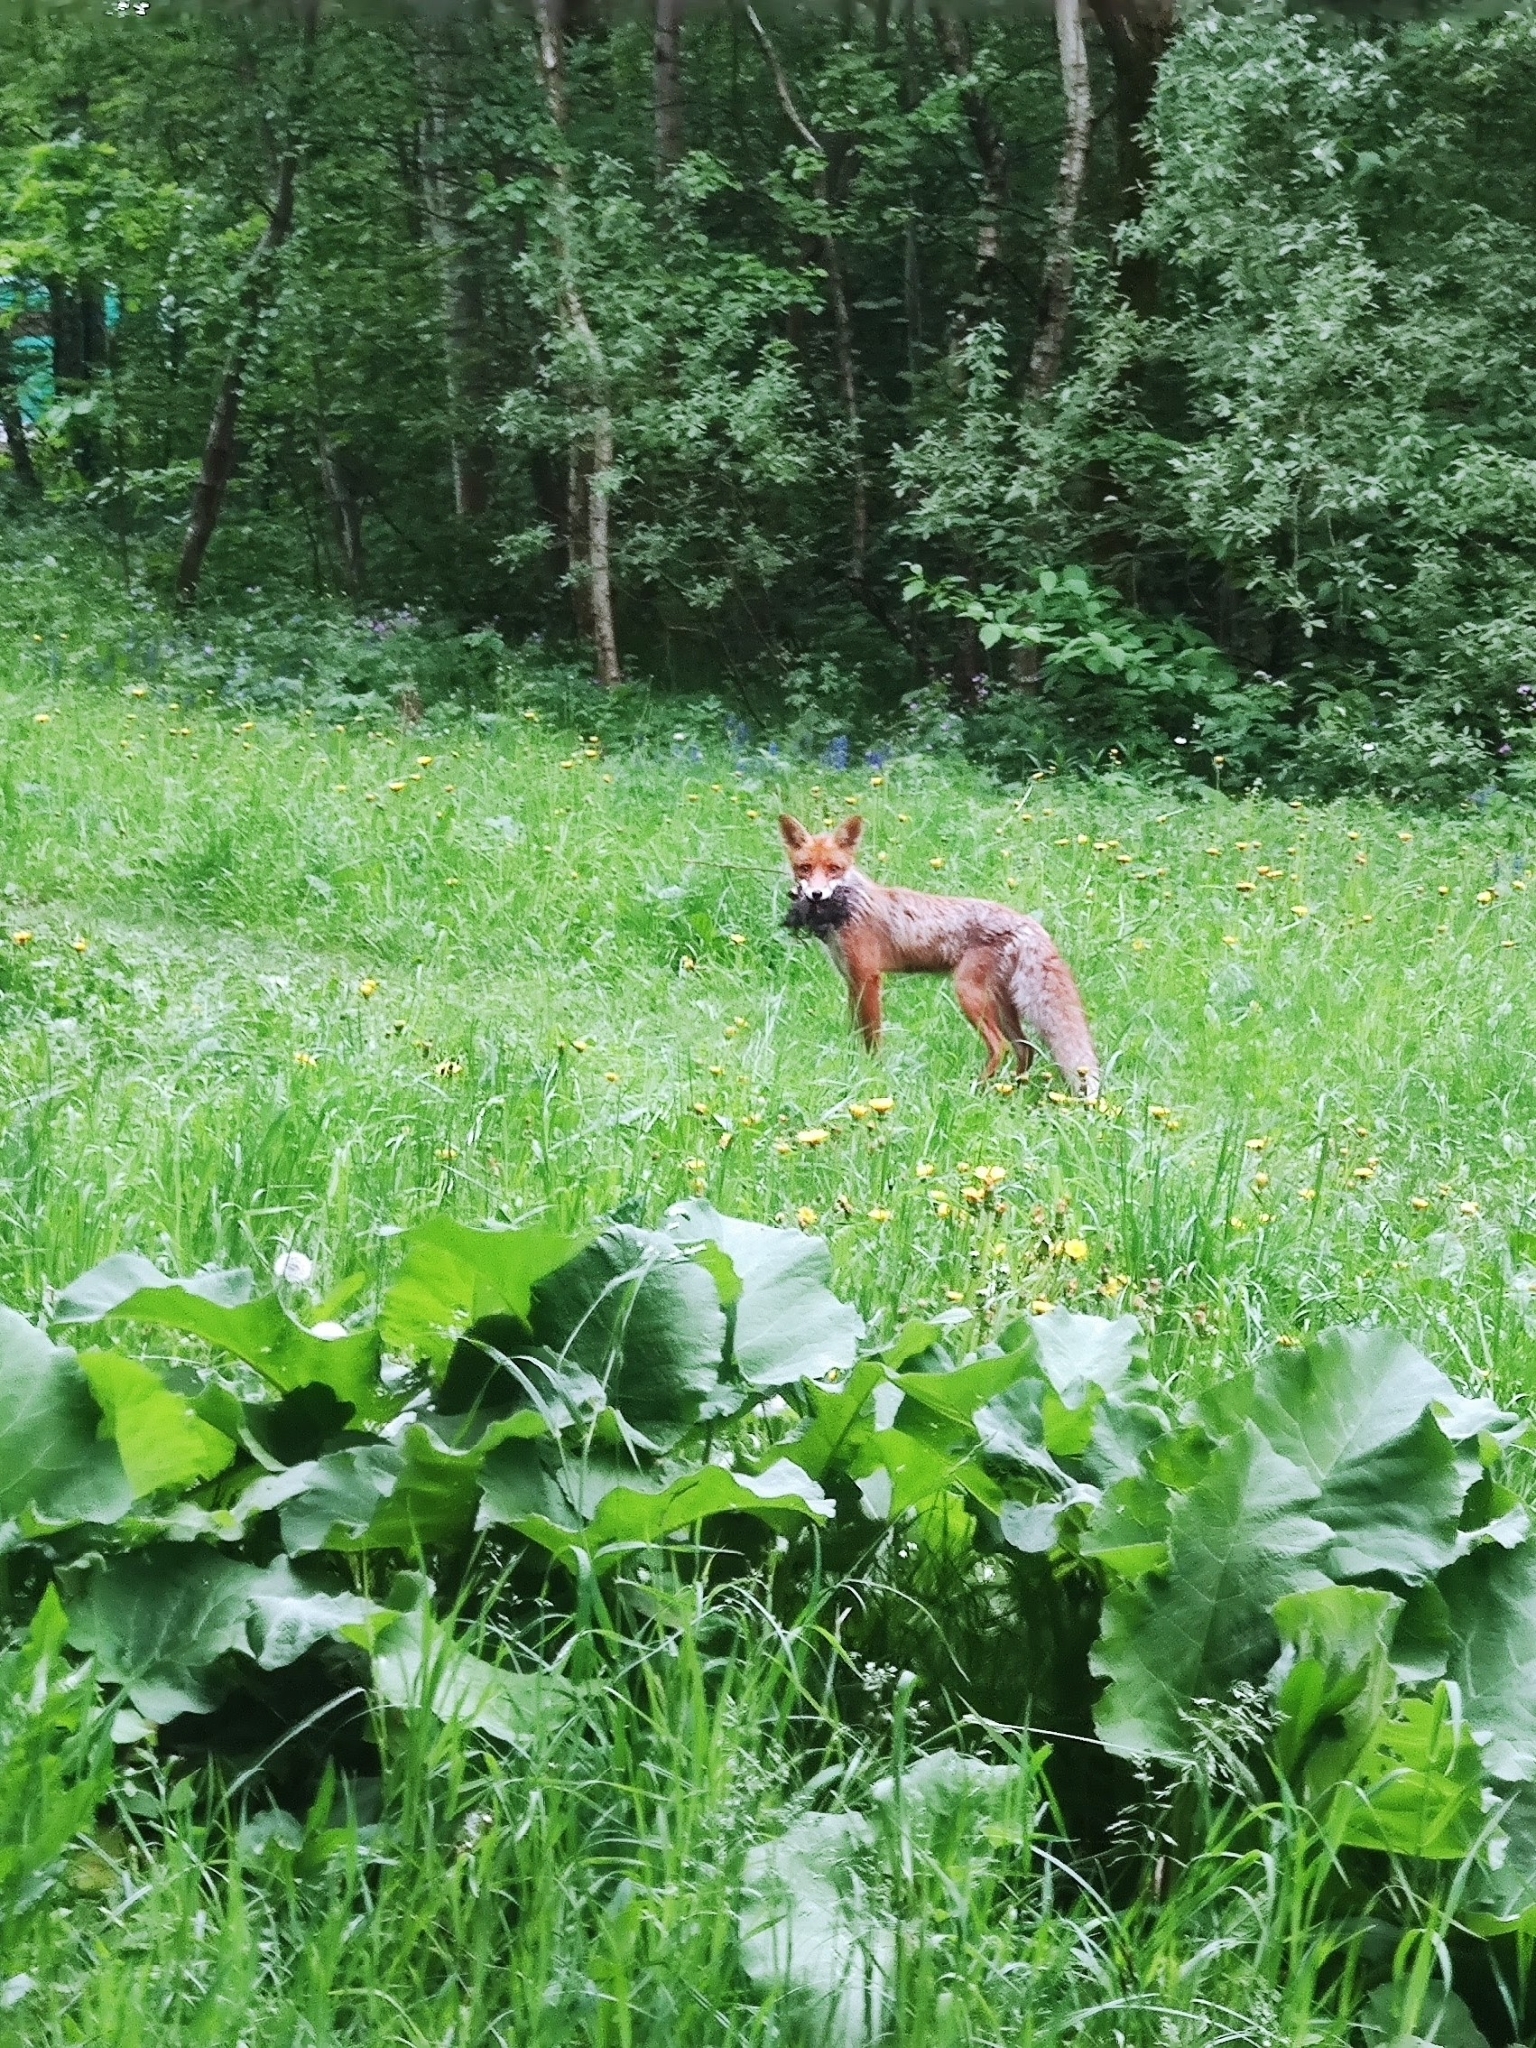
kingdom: Animalia
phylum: Chordata
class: Mammalia
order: Carnivora
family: Canidae
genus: Vulpes
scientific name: Vulpes vulpes
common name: Red fox
